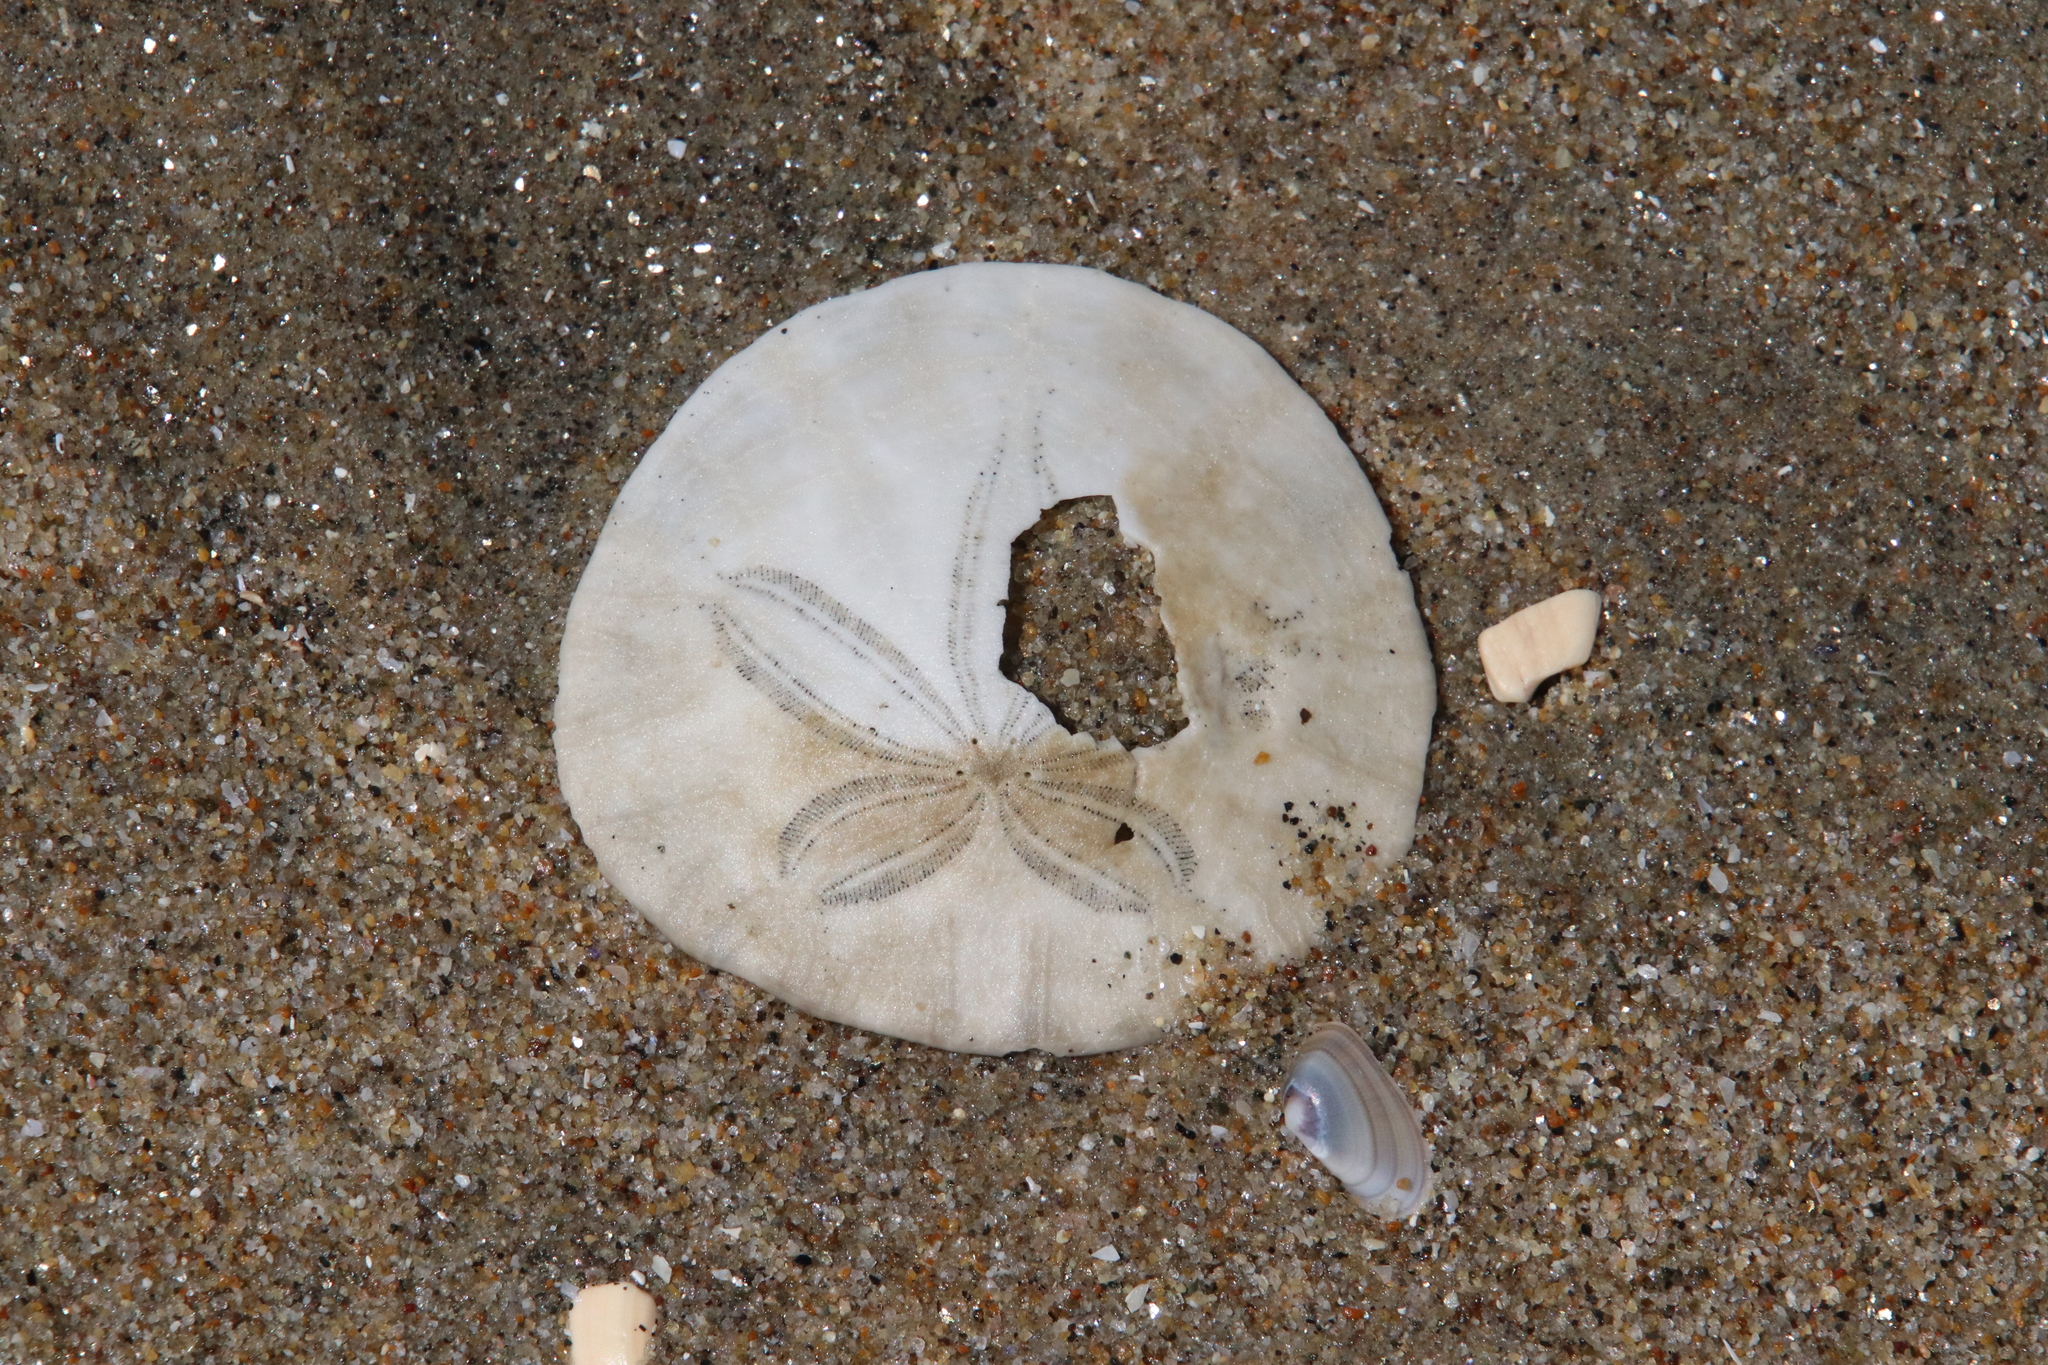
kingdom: Animalia
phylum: Echinodermata
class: Echinoidea
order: Echinolampadacea
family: Dendrasteridae
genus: Dendraster
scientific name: Dendraster excentricus
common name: Eccentric sand dollar sea urchin
